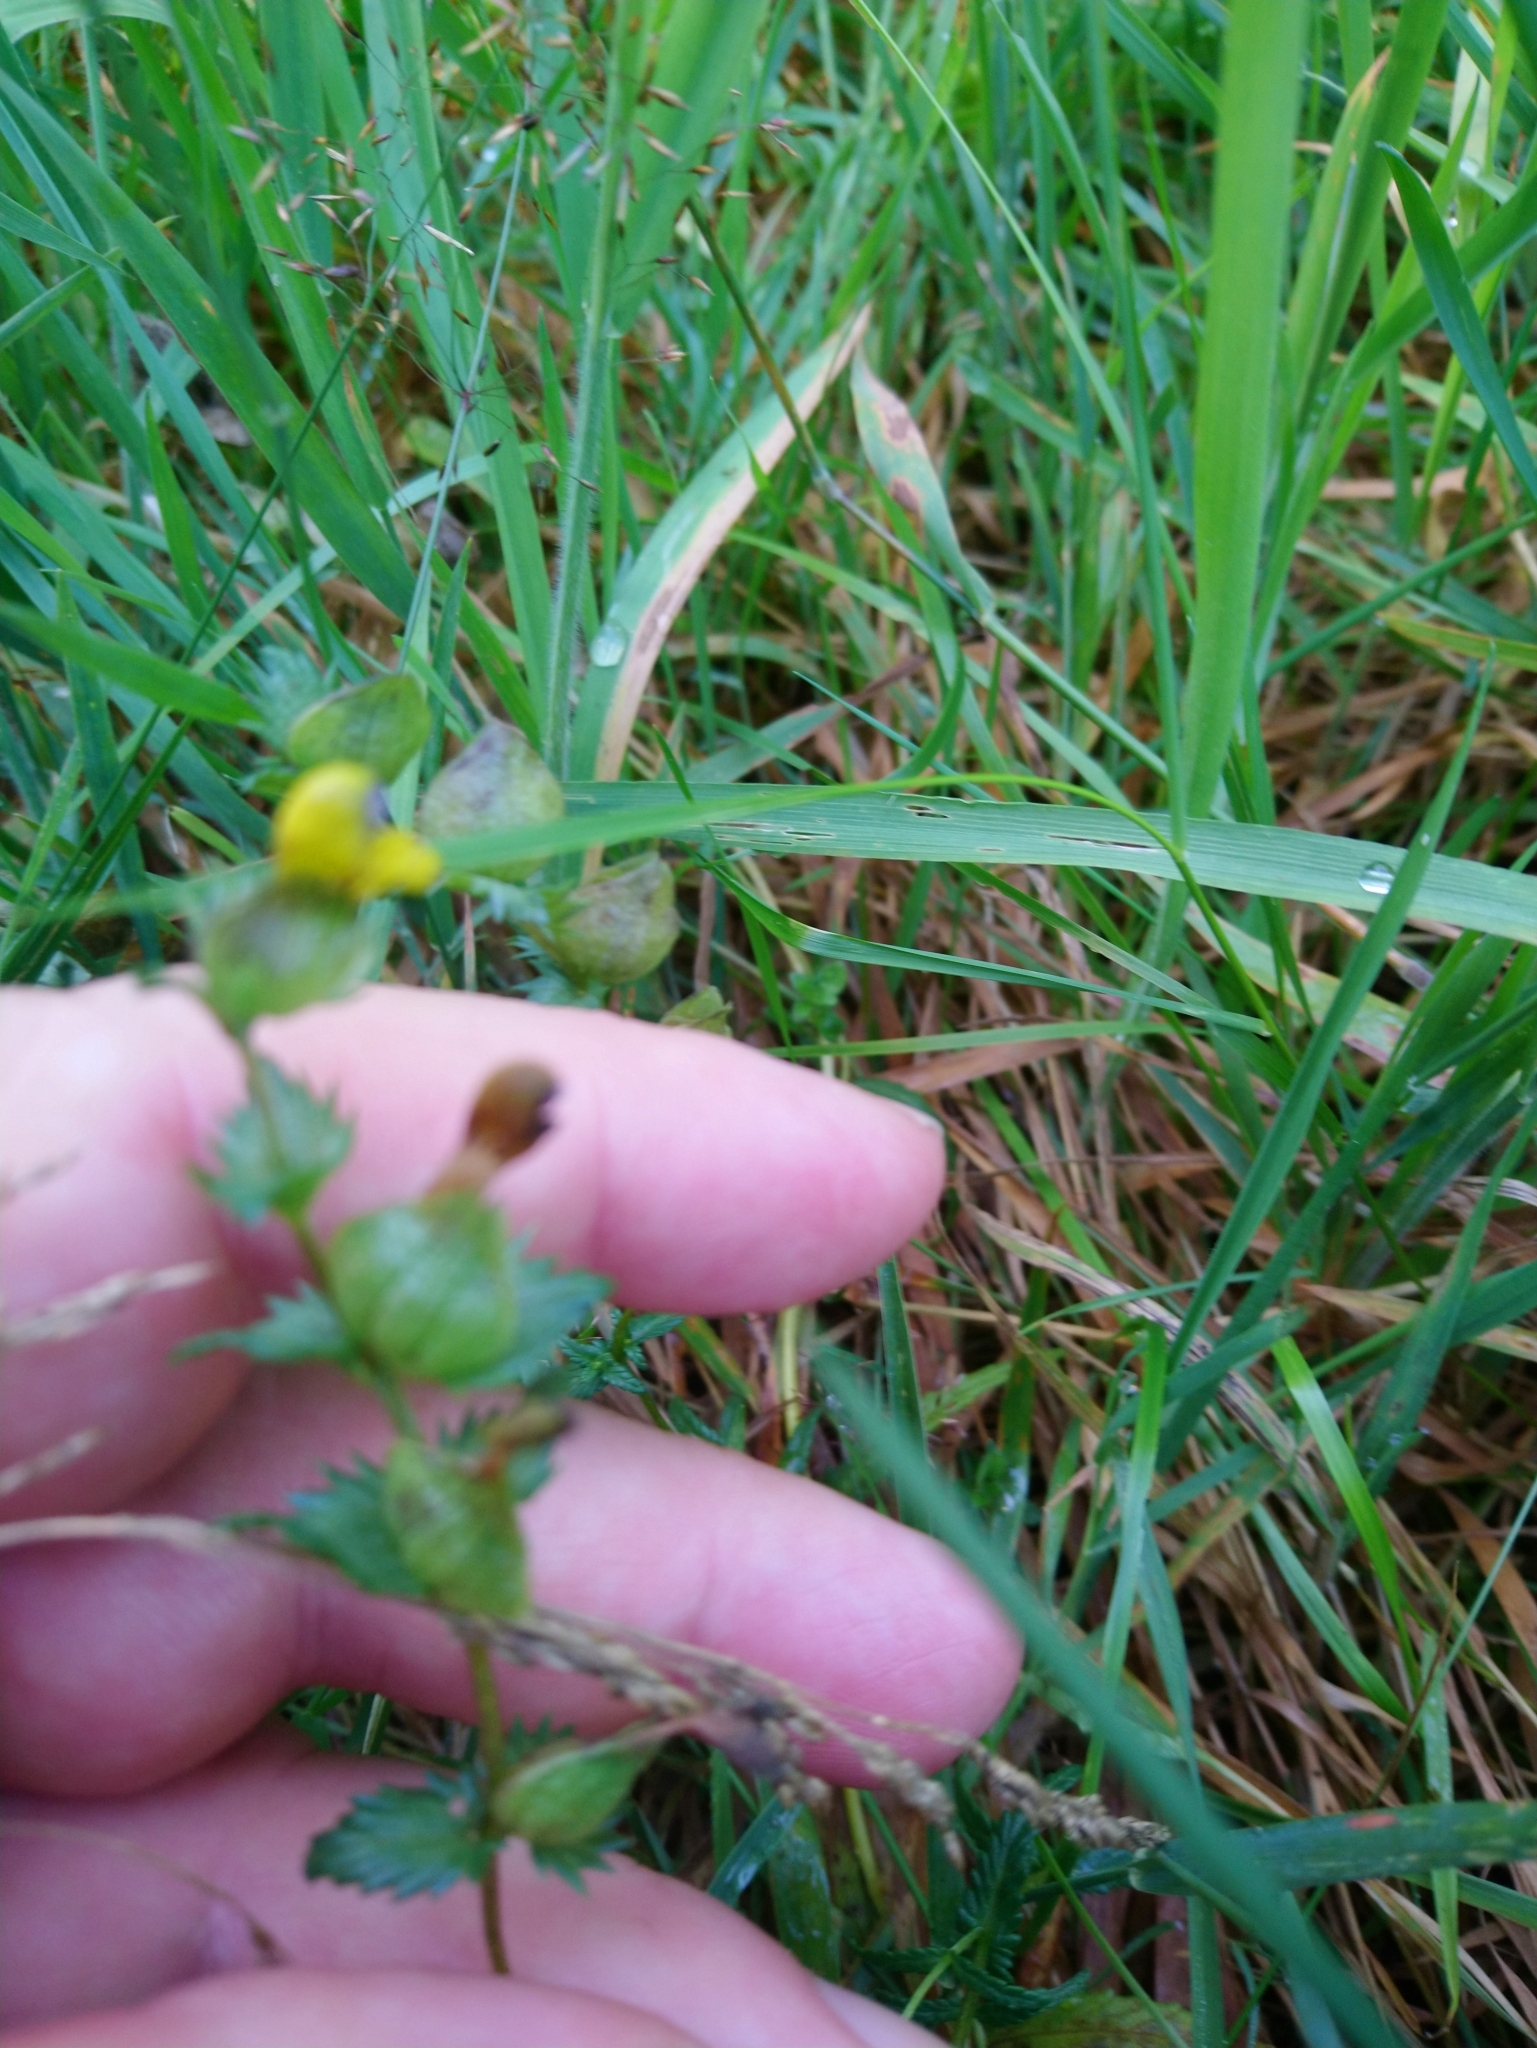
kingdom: Plantae
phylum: Tracheophyta
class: Magnoliopsida
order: Lamiales
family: Orobanchaceae
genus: Rhinanthus
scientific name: Rhinanthus minor
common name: Yellow-rattle
